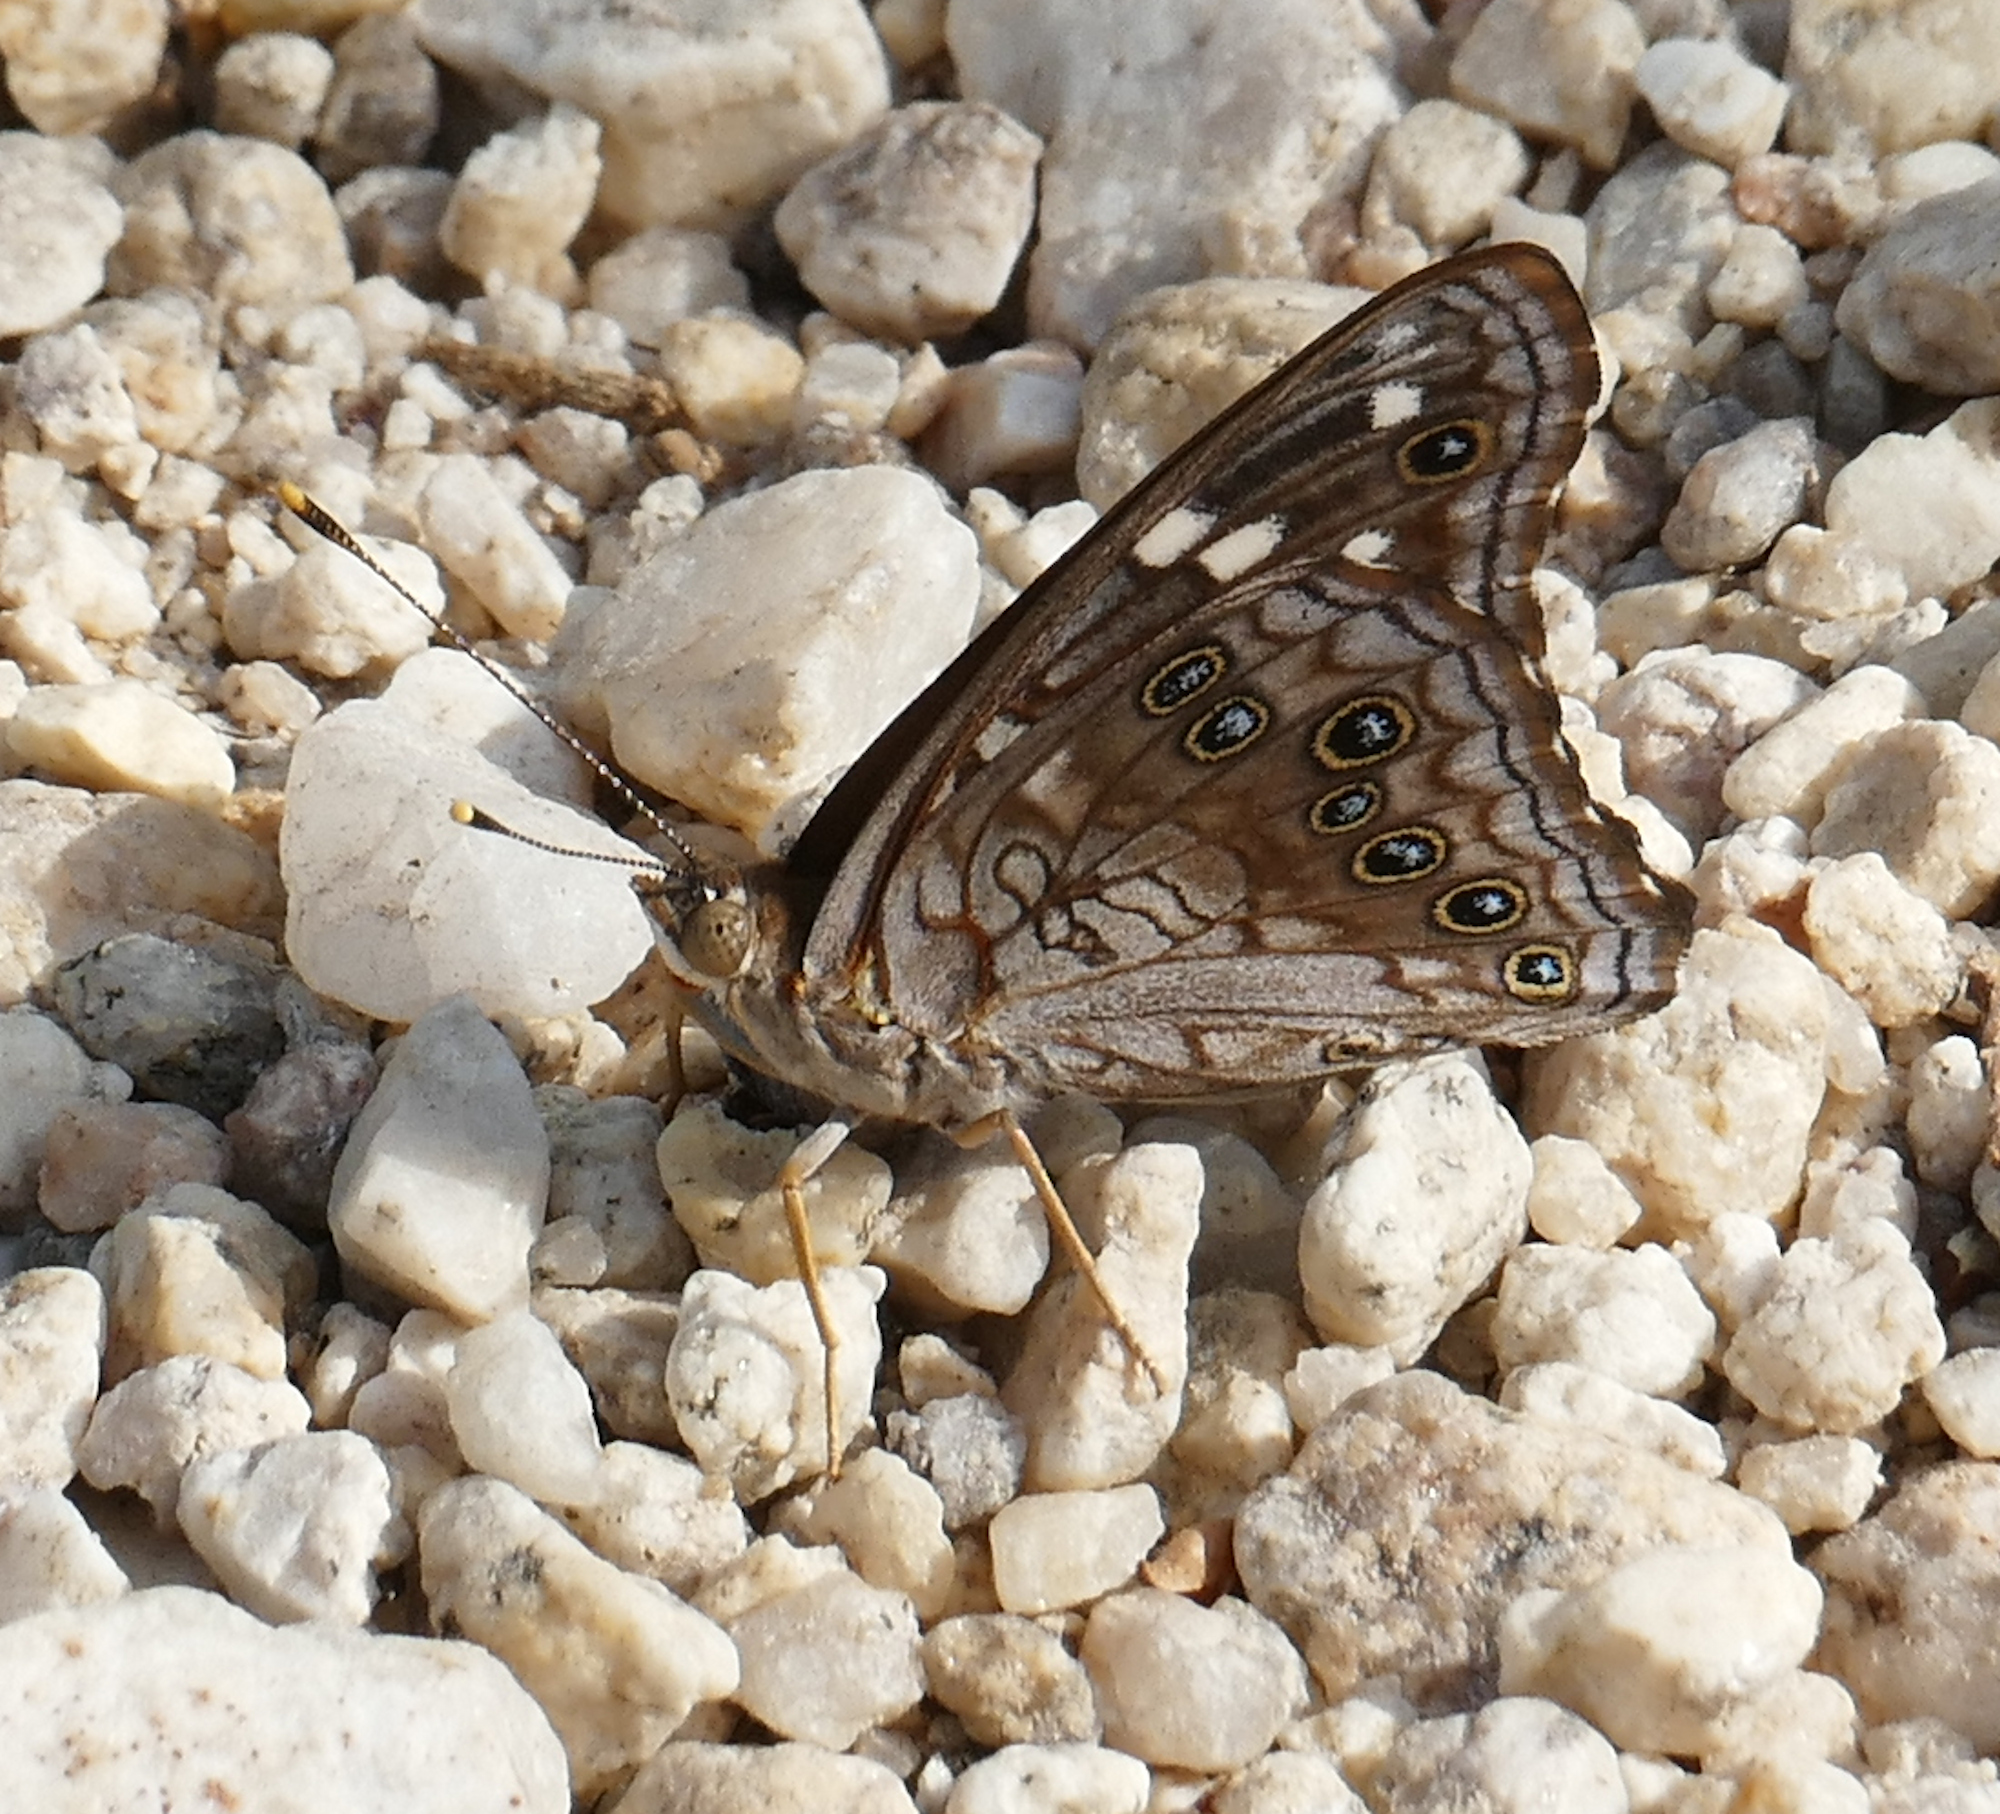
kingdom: Animalia
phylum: Arthropoda
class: Insecta
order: Lepidoptera
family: Nymphalidae
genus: Asterocampa
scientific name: Asterocampa leilia
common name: Empress leilia
